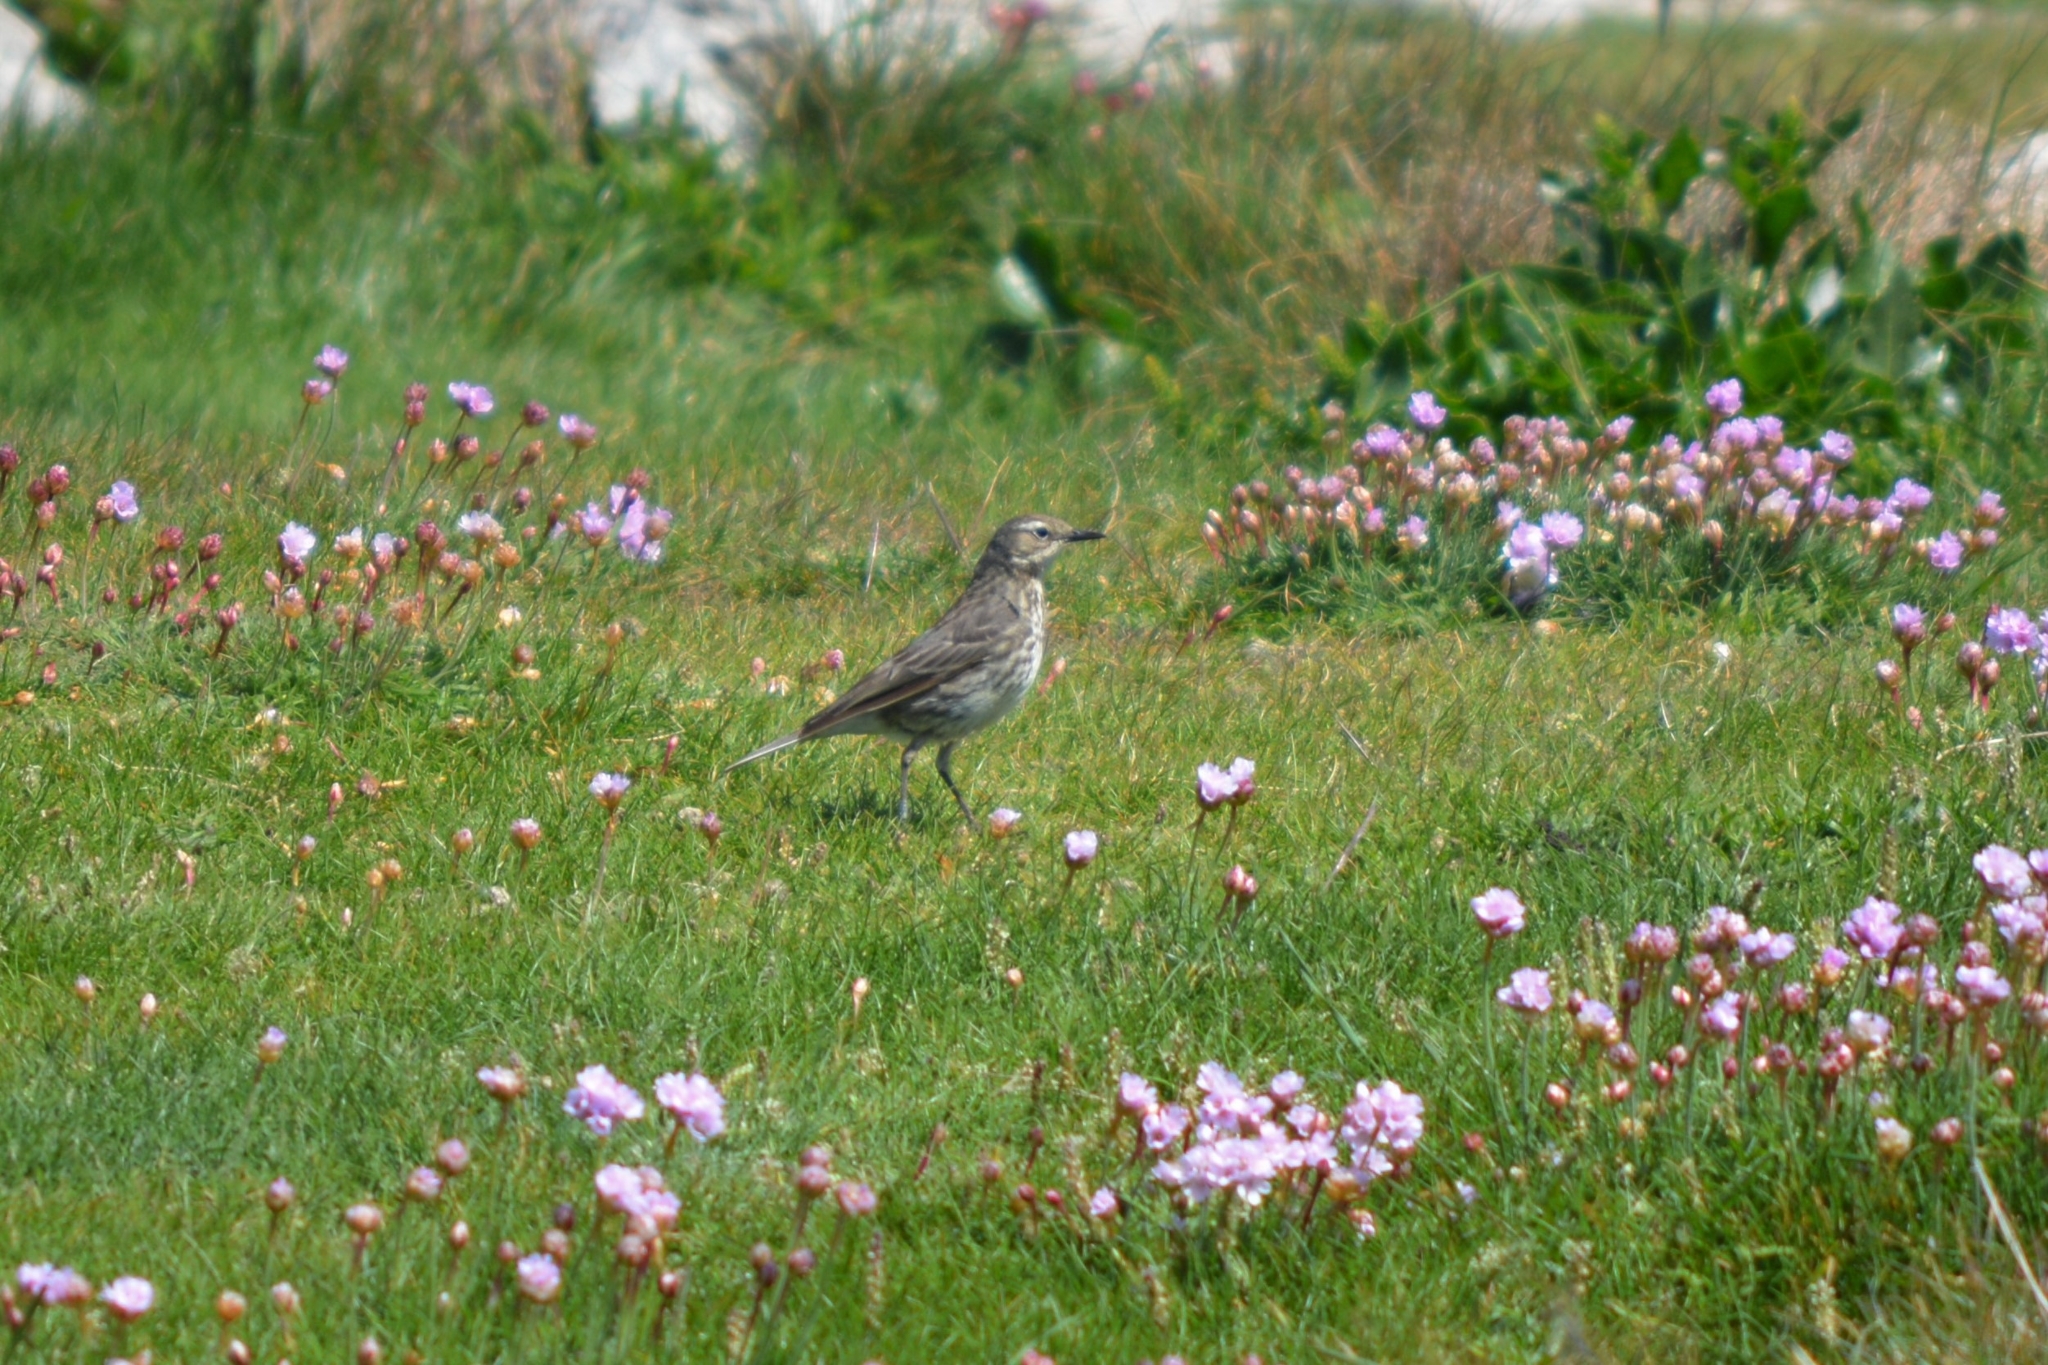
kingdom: Animalia
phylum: Chordata
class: Aves
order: Passeriformes
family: Motacillidae
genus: Anthus
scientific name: Anthus petrosus
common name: Eurasian rock pipit
